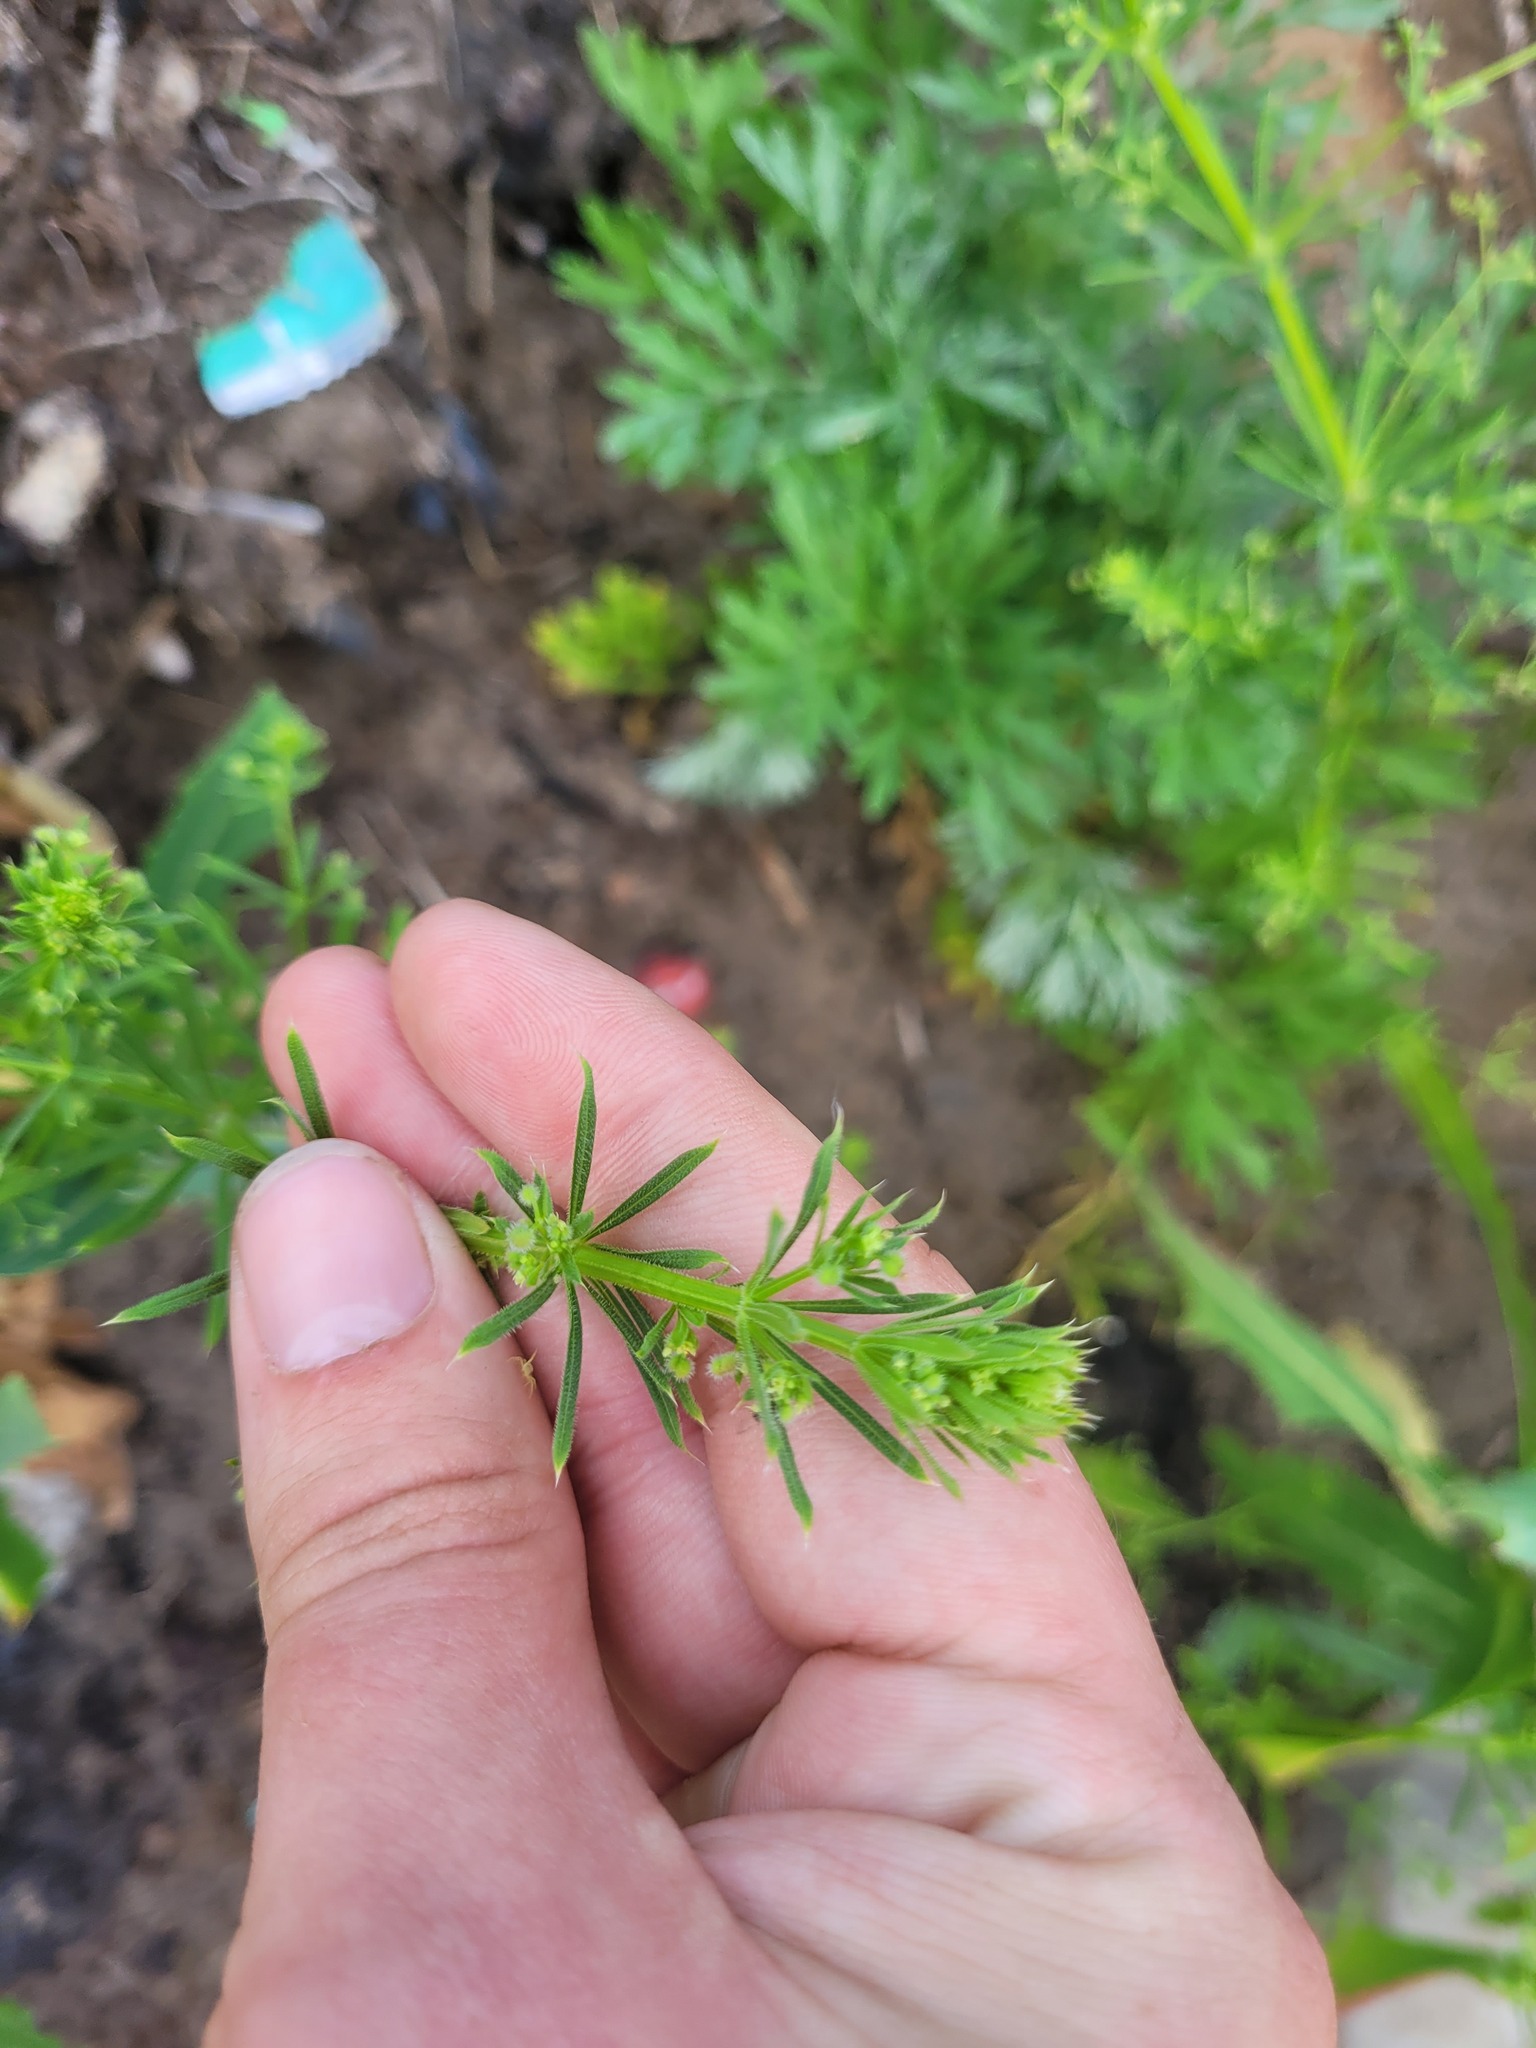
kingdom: Plantae
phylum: Tracheophyta
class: Magnoliopsida
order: Gentianales
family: Rubiaceae
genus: Galium
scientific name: Galium
